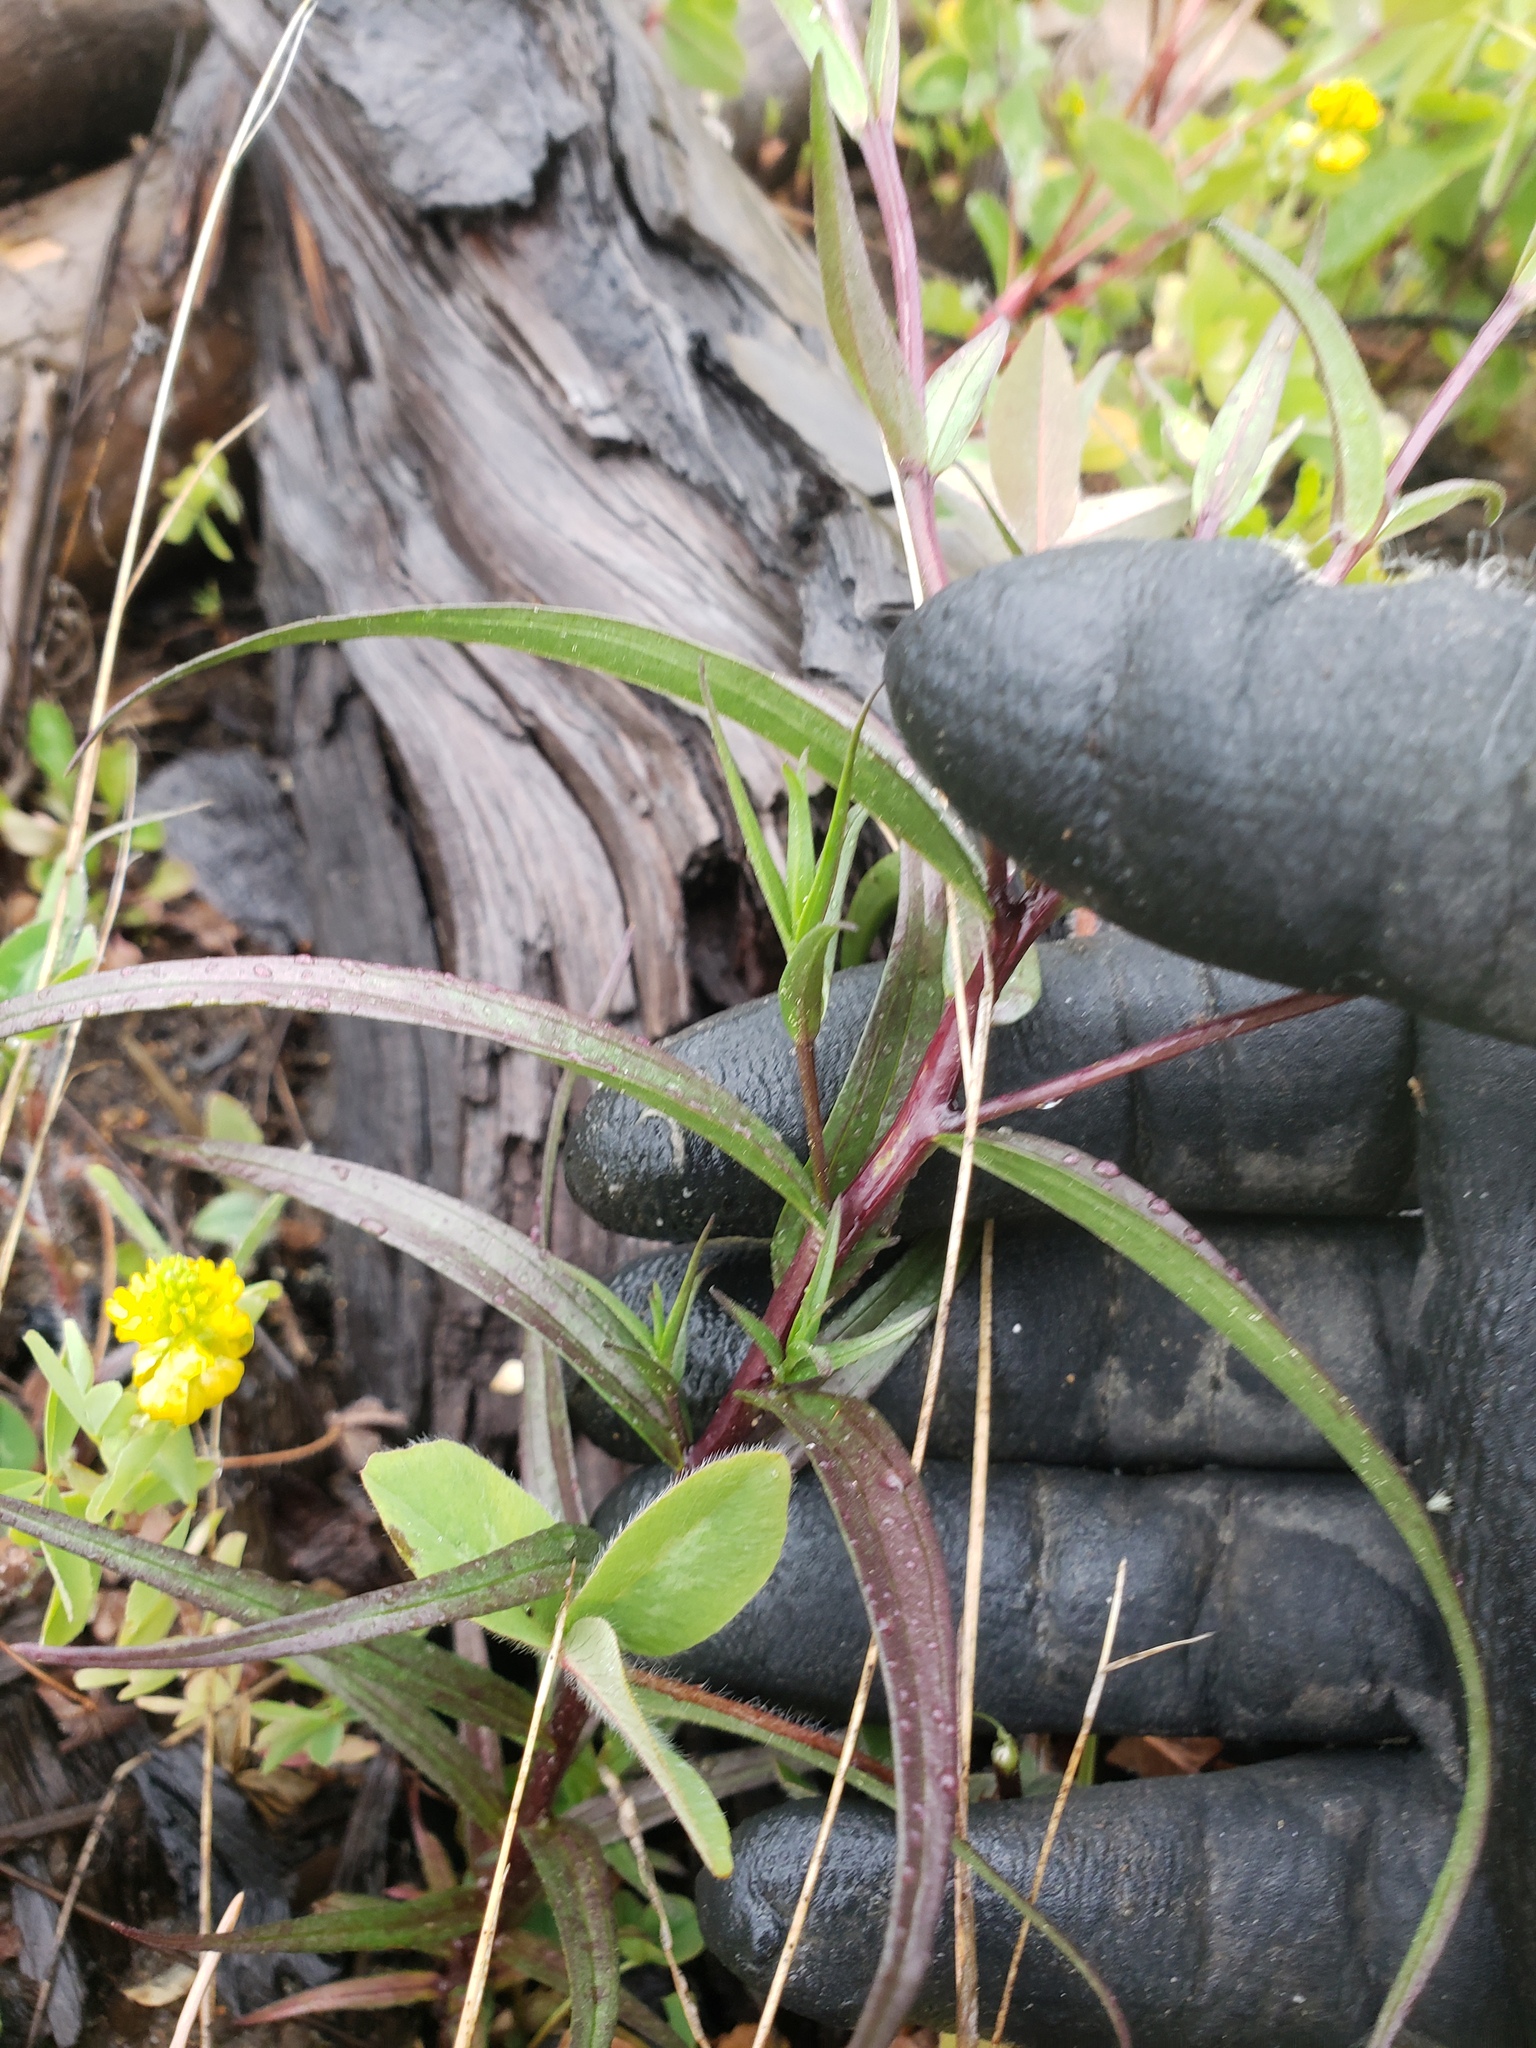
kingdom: Plantae
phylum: Tracheophyta
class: Magnoliopsida
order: Lamiales
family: Orobanchaceae
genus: Castilleja
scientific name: Castilleja miniata
